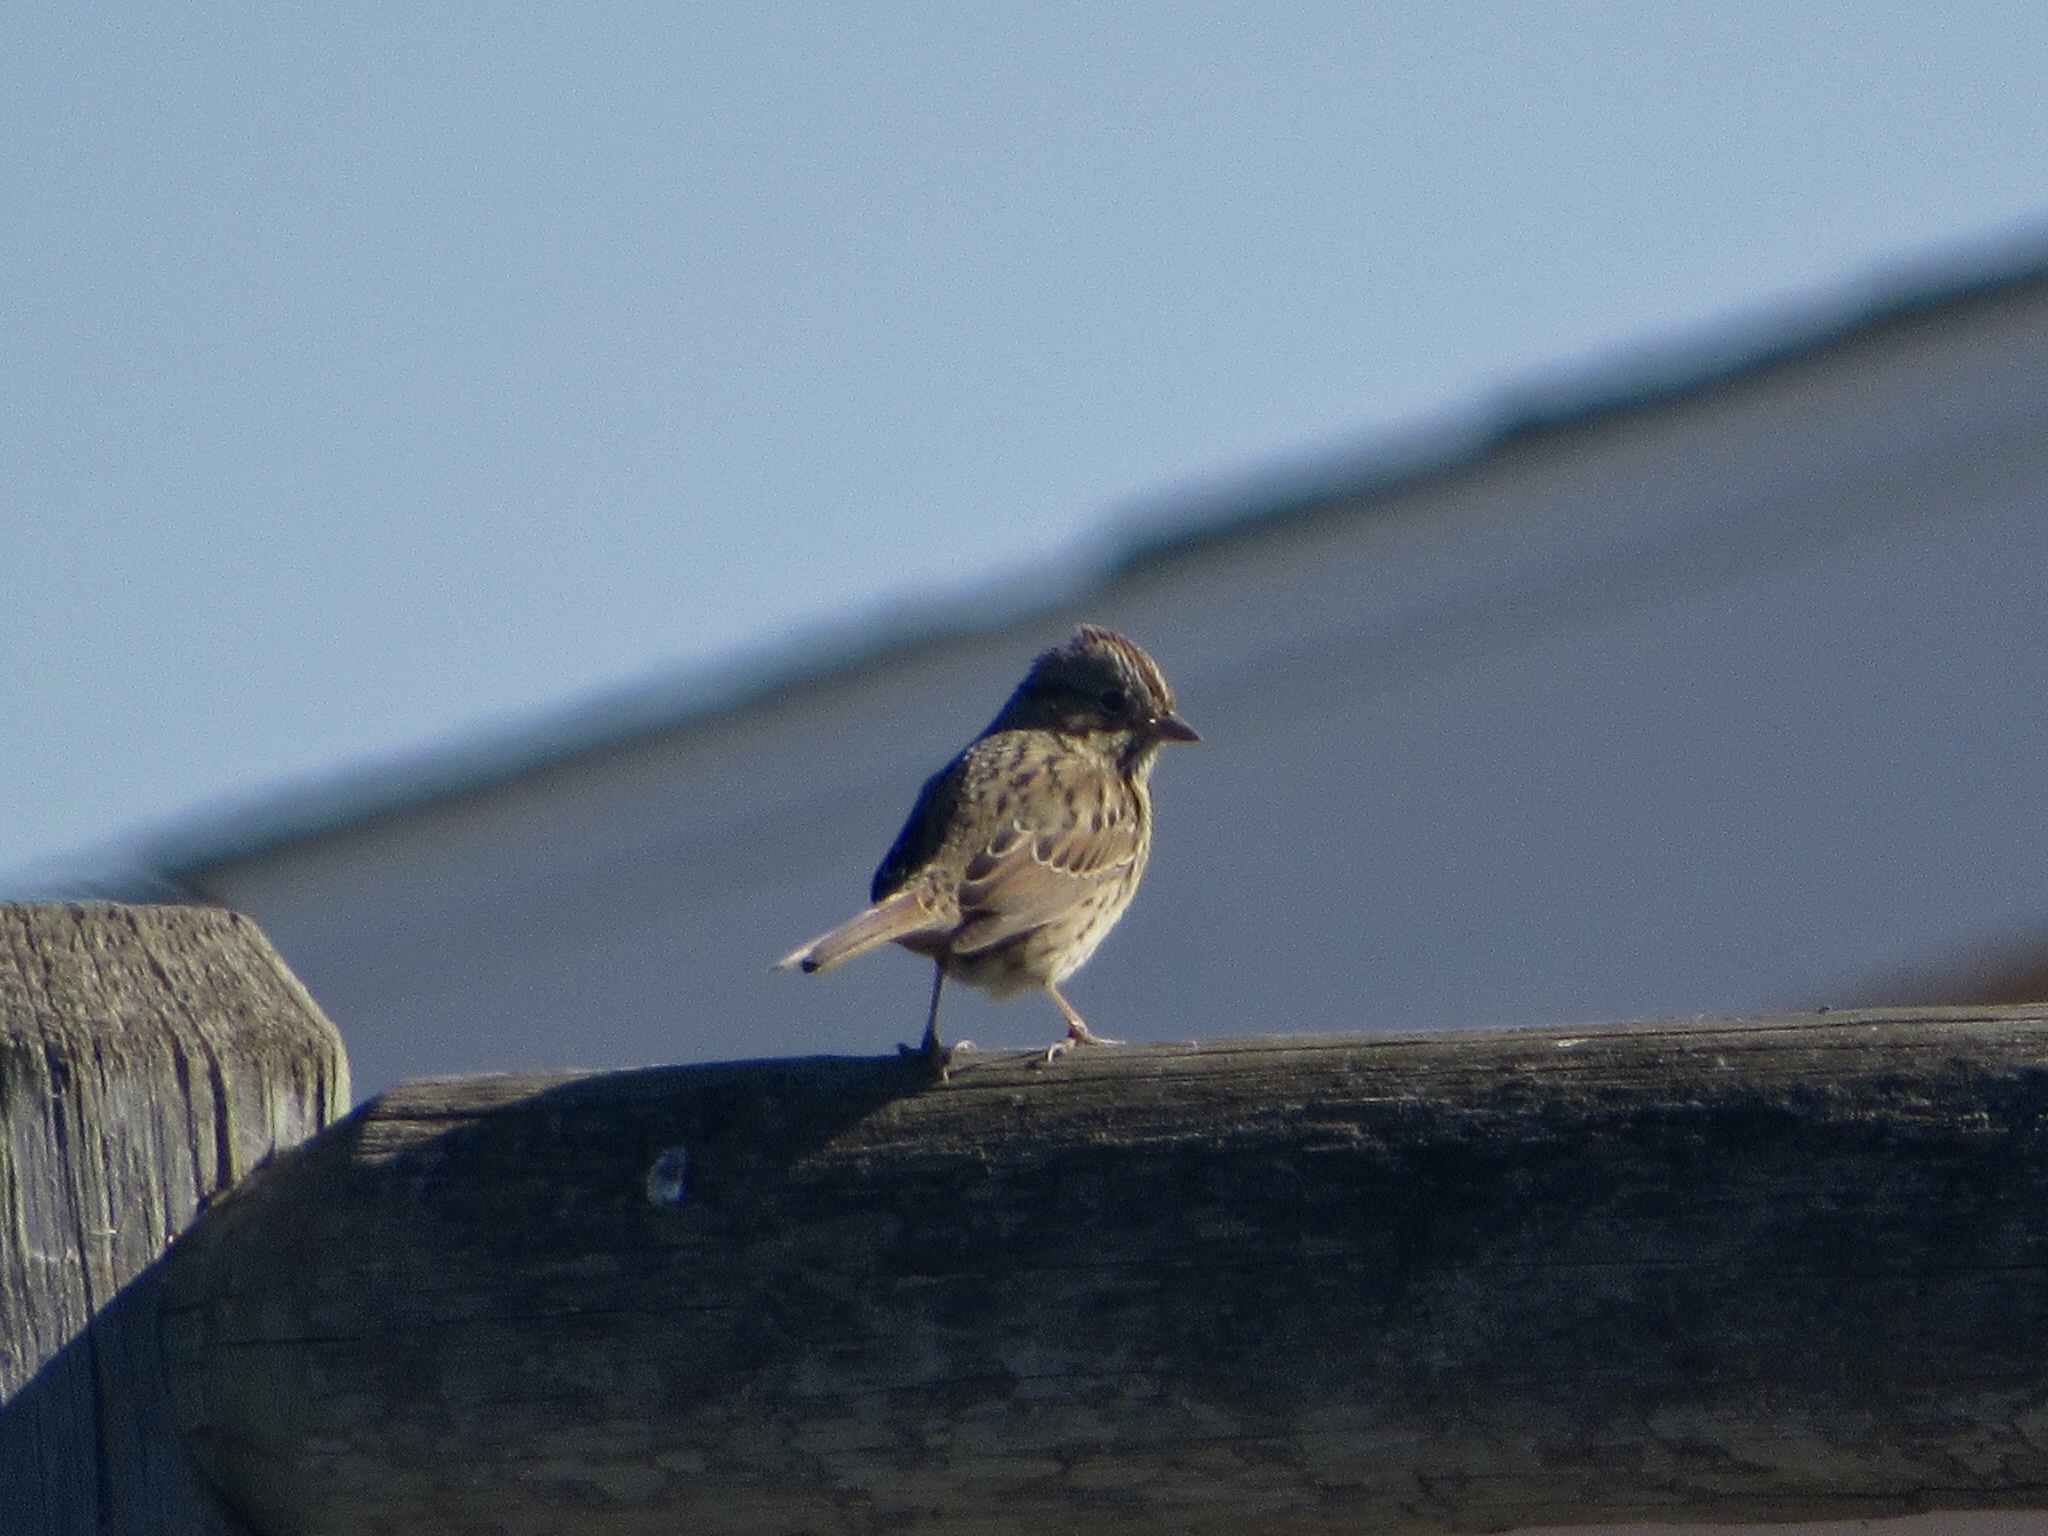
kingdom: Animalia
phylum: Chordata
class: Aves
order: Passeriformes
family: Passerellidae
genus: Melospiza
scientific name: Melospiza lincolnii
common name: Lincoln's sparrow
